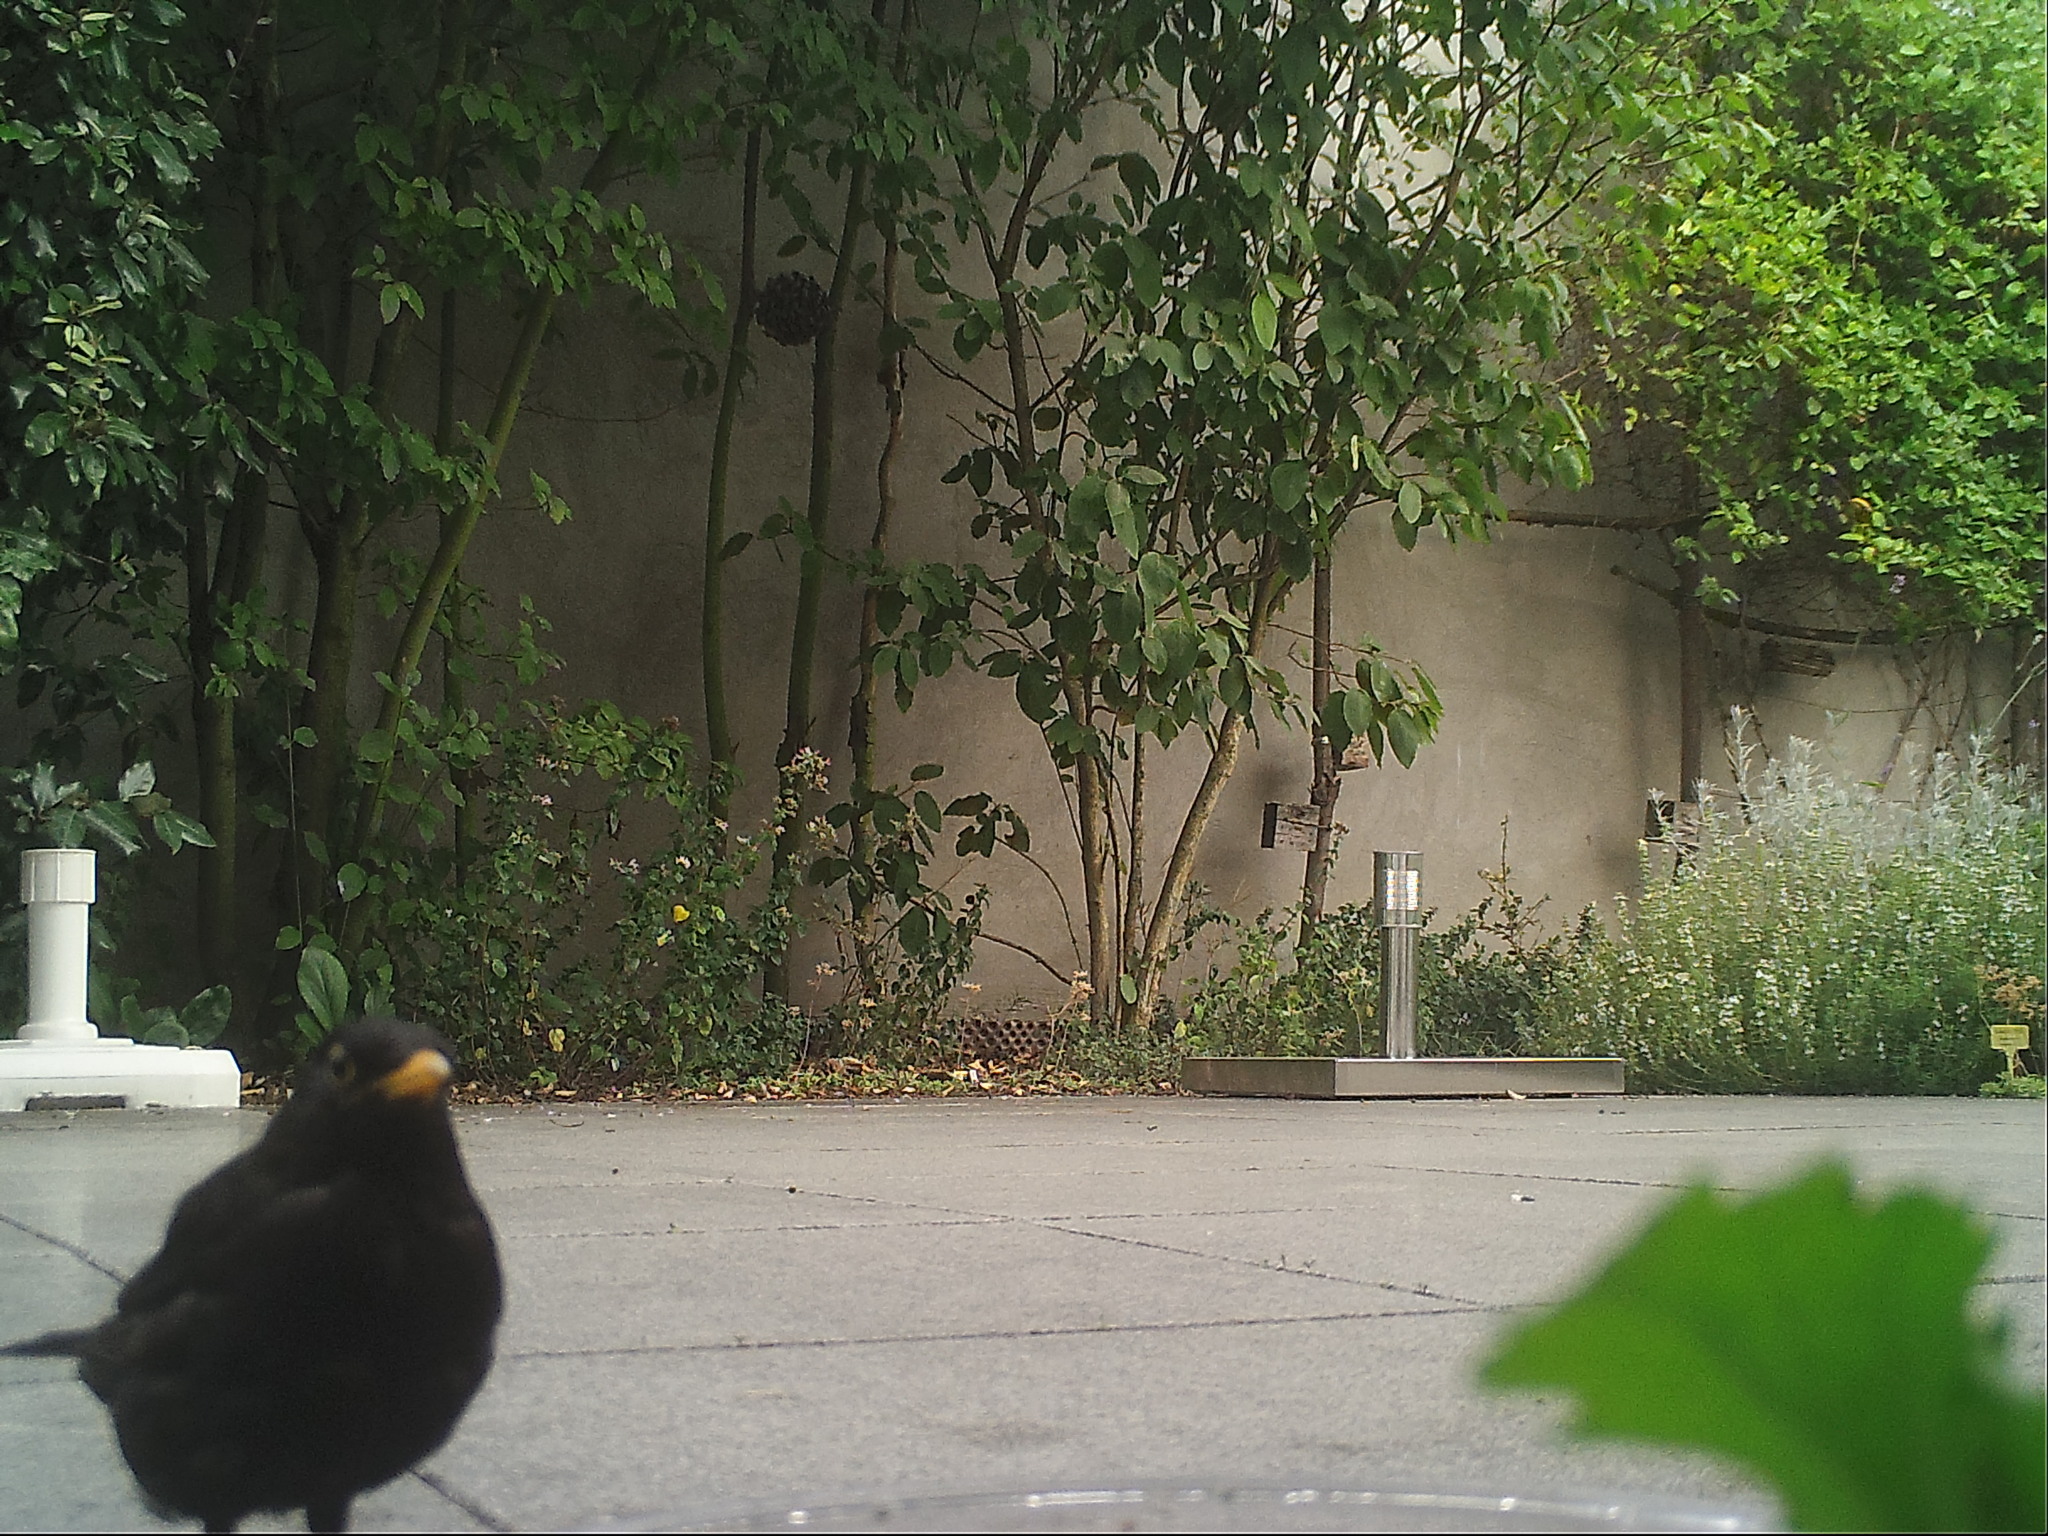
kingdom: Animalia
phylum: Chordata
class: Aves
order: Passeriformes
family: Turdidae
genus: Turdus
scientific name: Turdus merula
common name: Common blackbird
